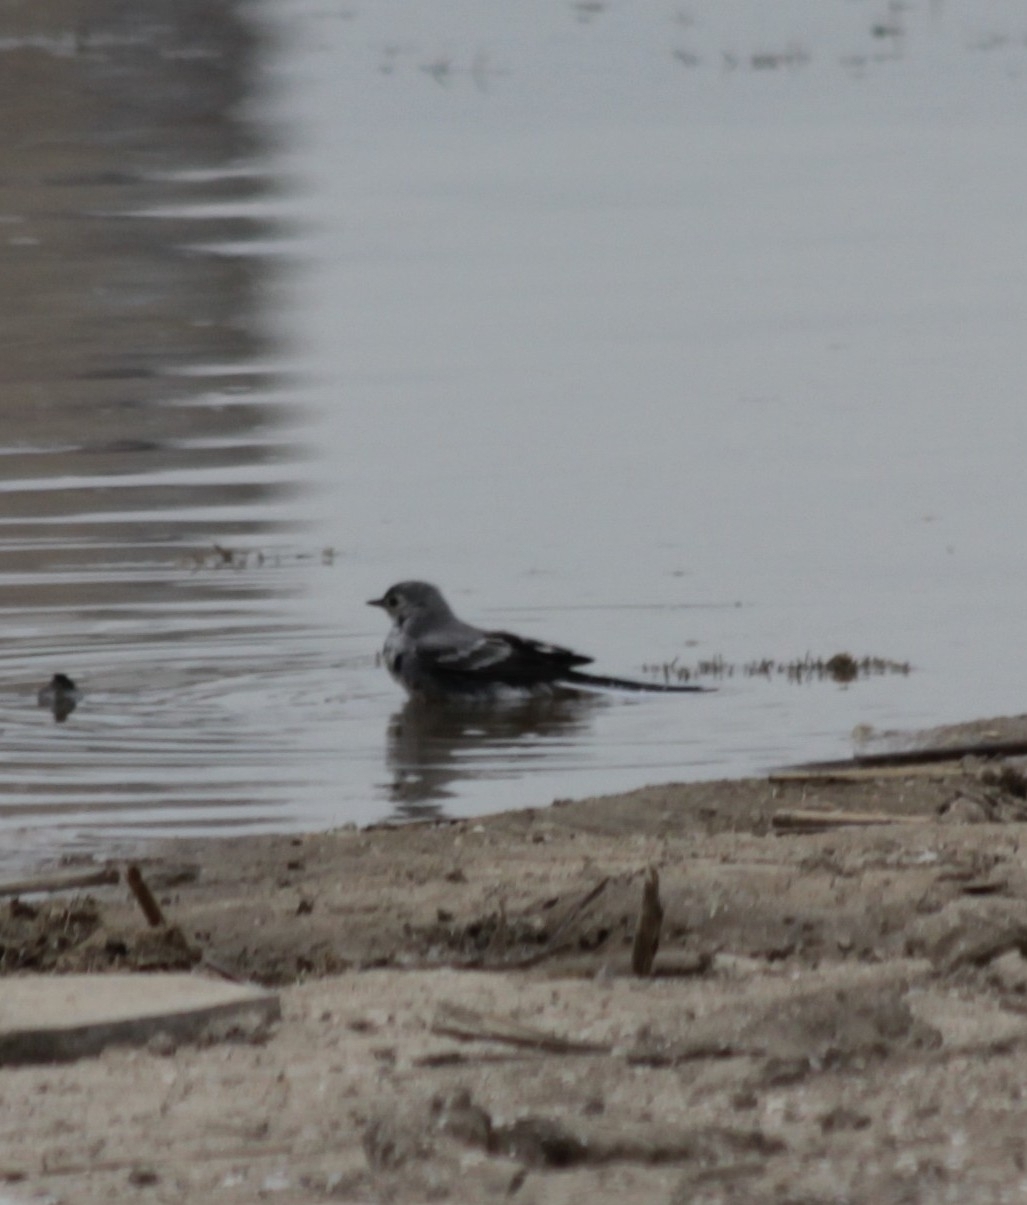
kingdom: Animalia
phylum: Chordata
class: Aves
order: Passeriformes
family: Motacillidae
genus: Motacilla
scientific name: Motacilla alba
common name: White wagtail
